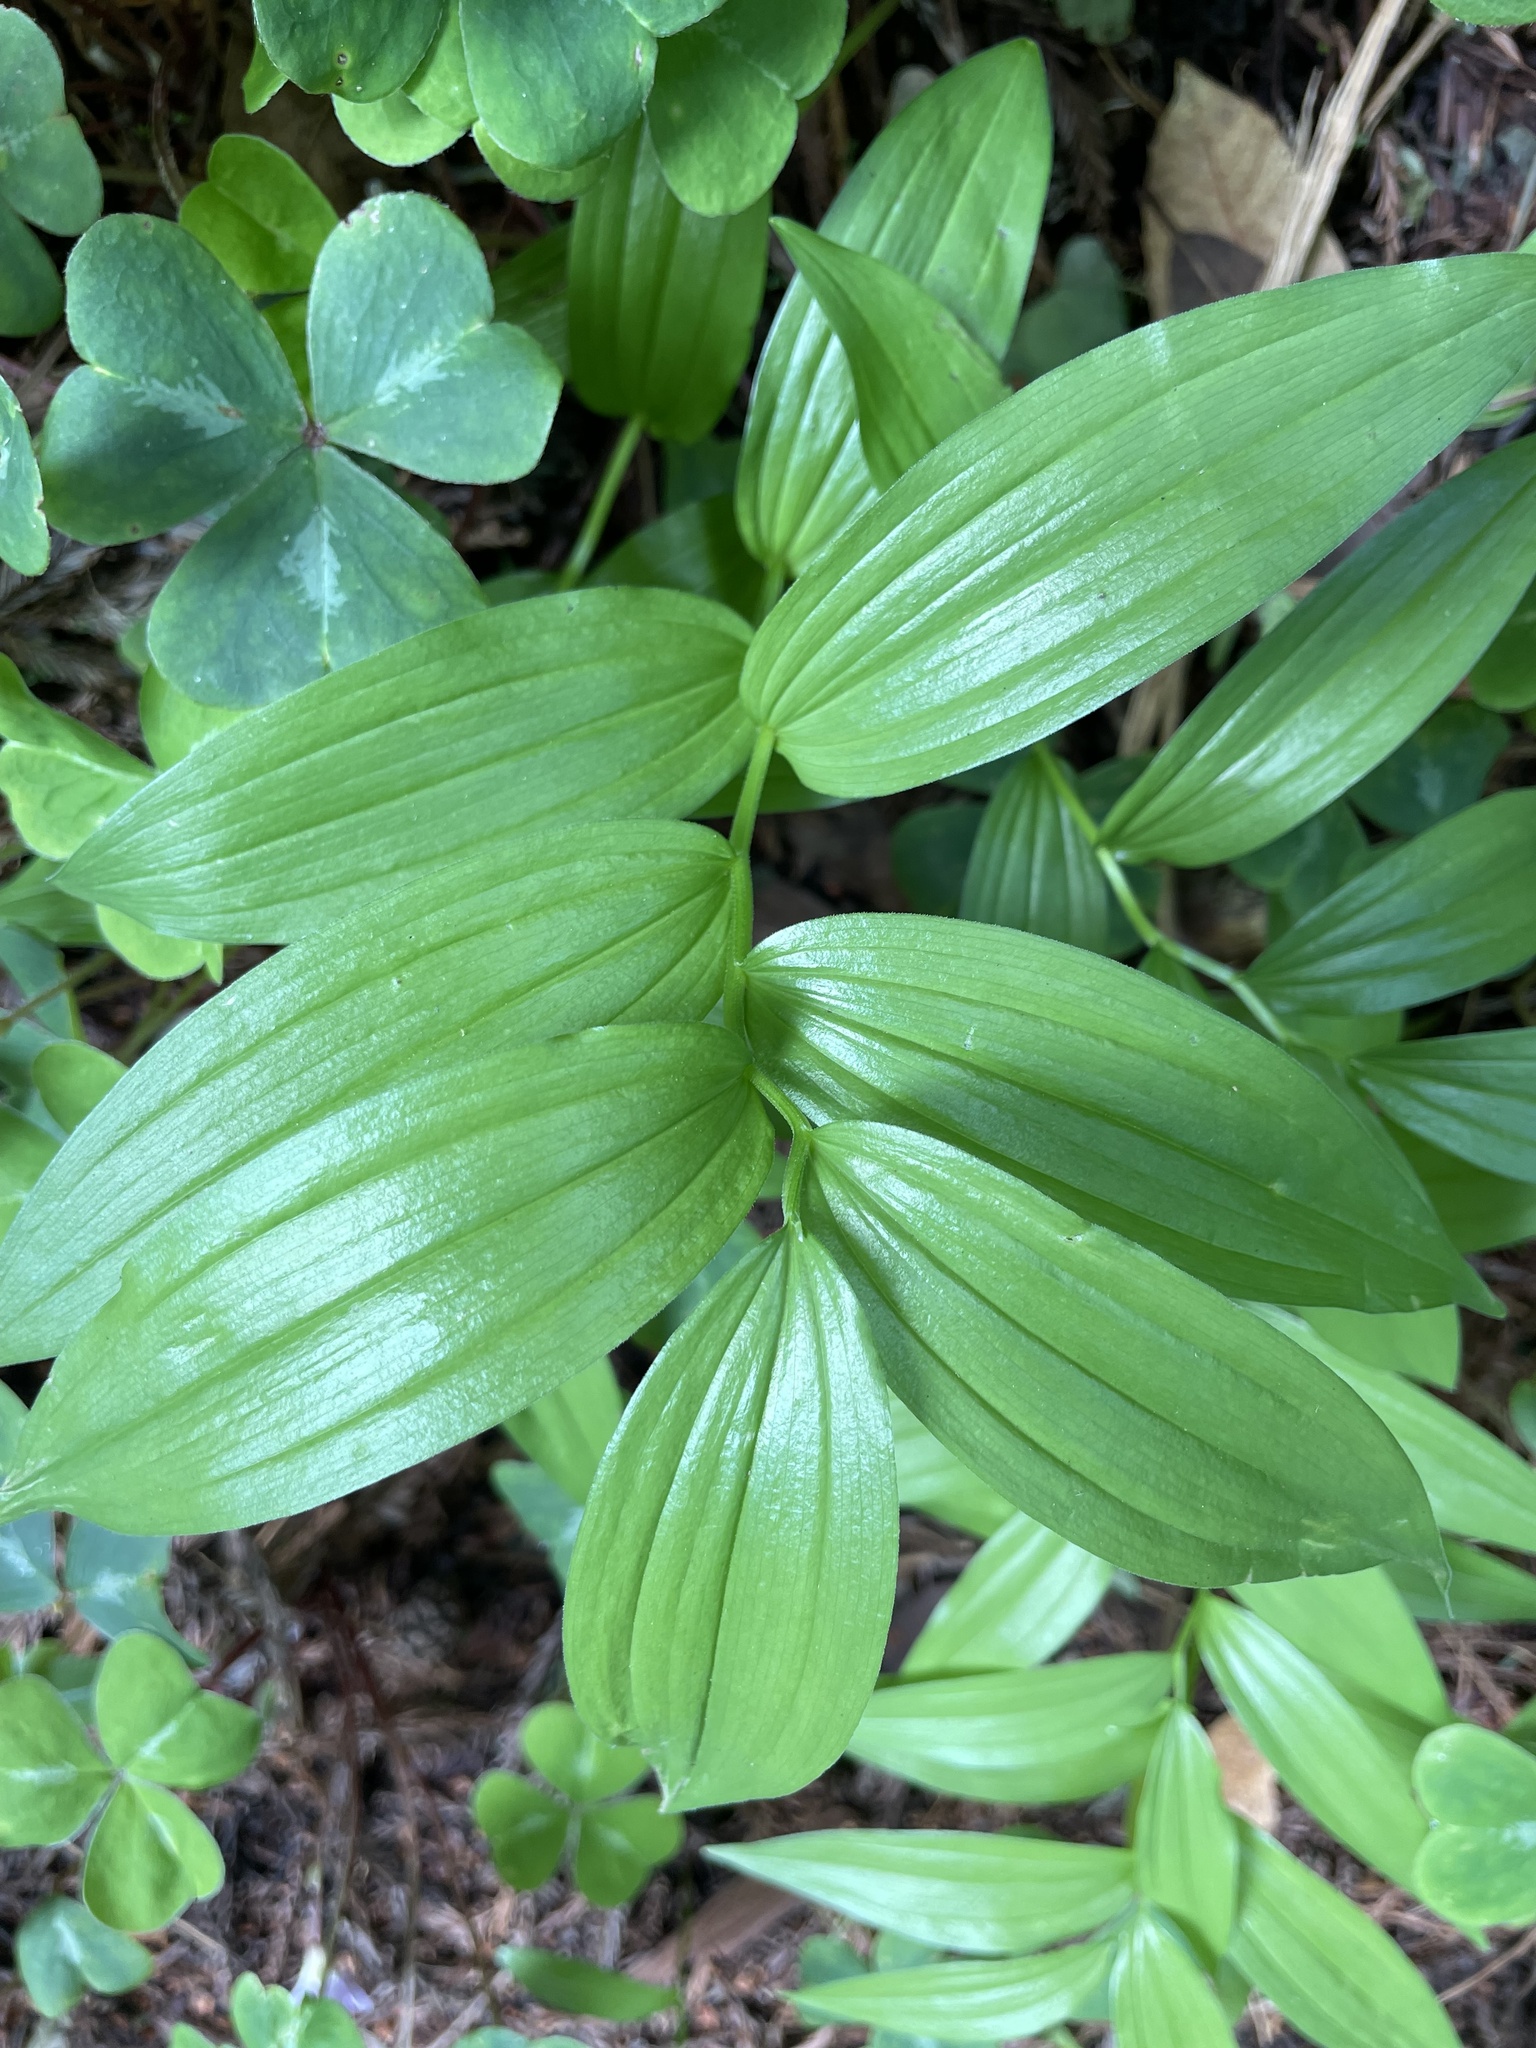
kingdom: Plantae
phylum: Tracheophyta
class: Liliopsida
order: Asparagales
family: Asparagaceae
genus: Maianthemum
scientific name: Maianthemum stellatum
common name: Little false solomon's seal
